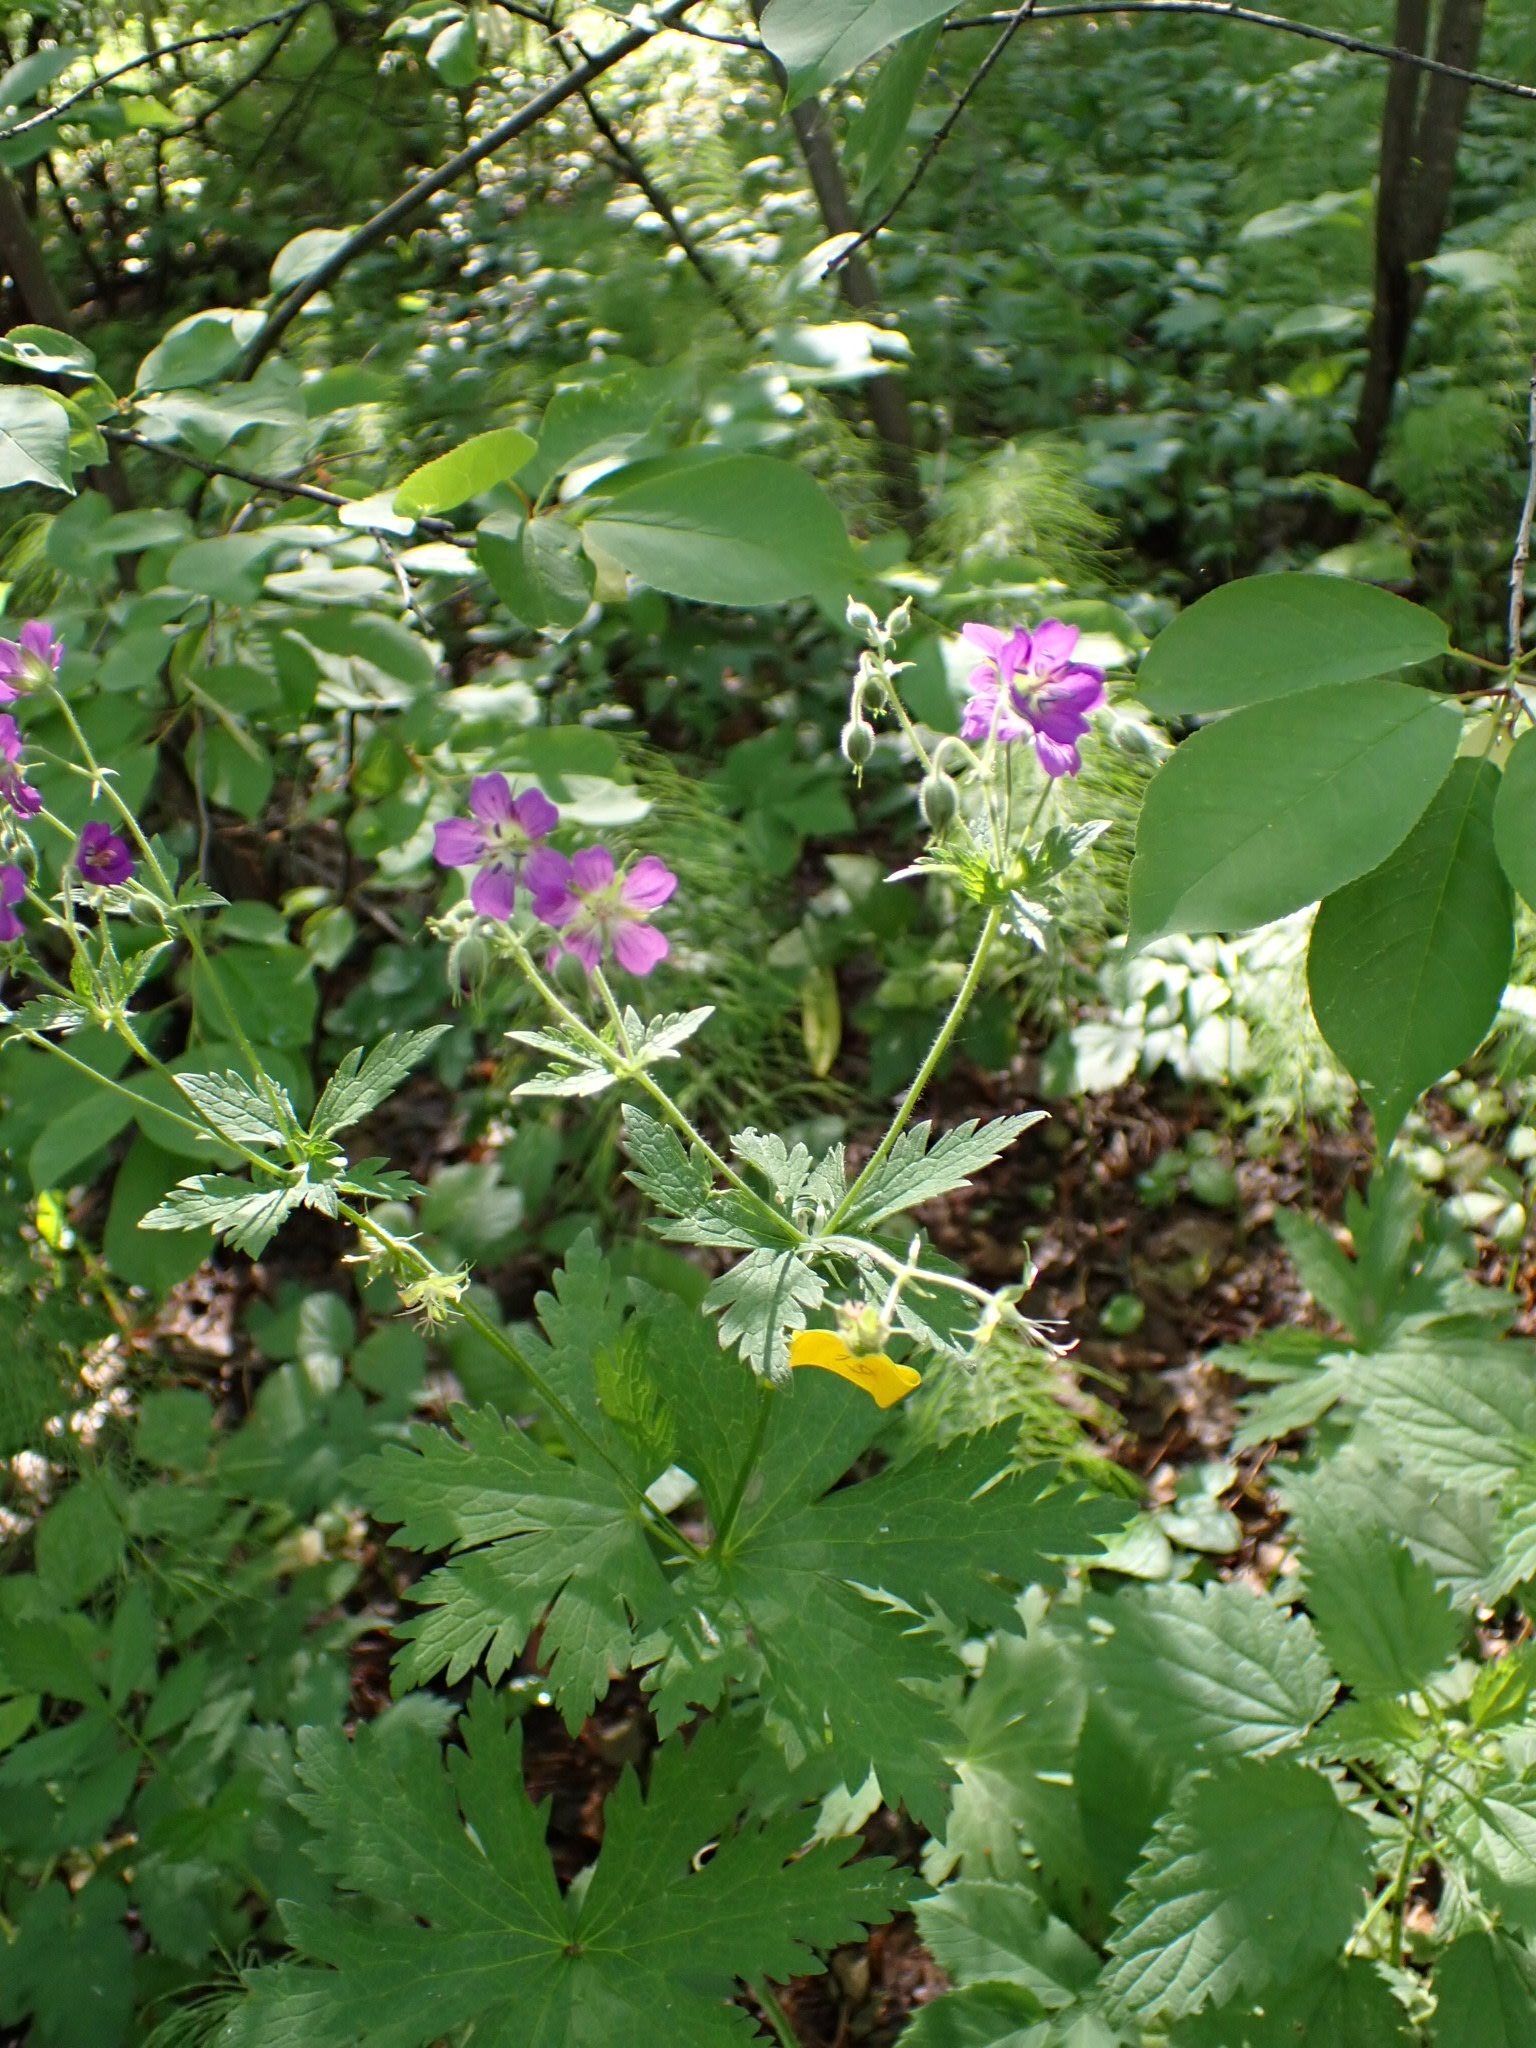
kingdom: Plantae
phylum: Tracheophyta
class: Magnoliopsida
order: Geraniales
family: Geraniaceae
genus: Geranium
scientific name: Geranium sylvaticum
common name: Wood crane's-bill
